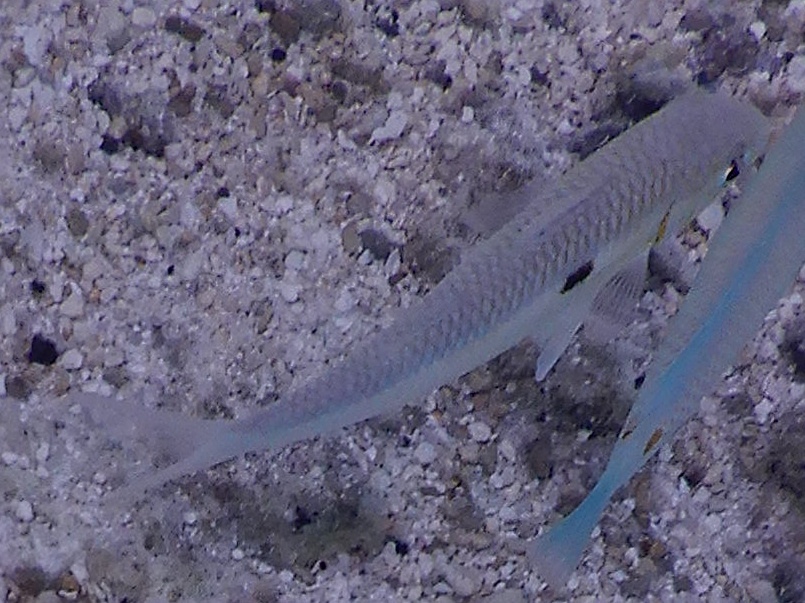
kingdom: Animalia
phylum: Chordata
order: Perciformes
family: Mullidae
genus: Mulloidichthys
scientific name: Mulloidichthys flavolineatus
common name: Yellowstripe goatfish
